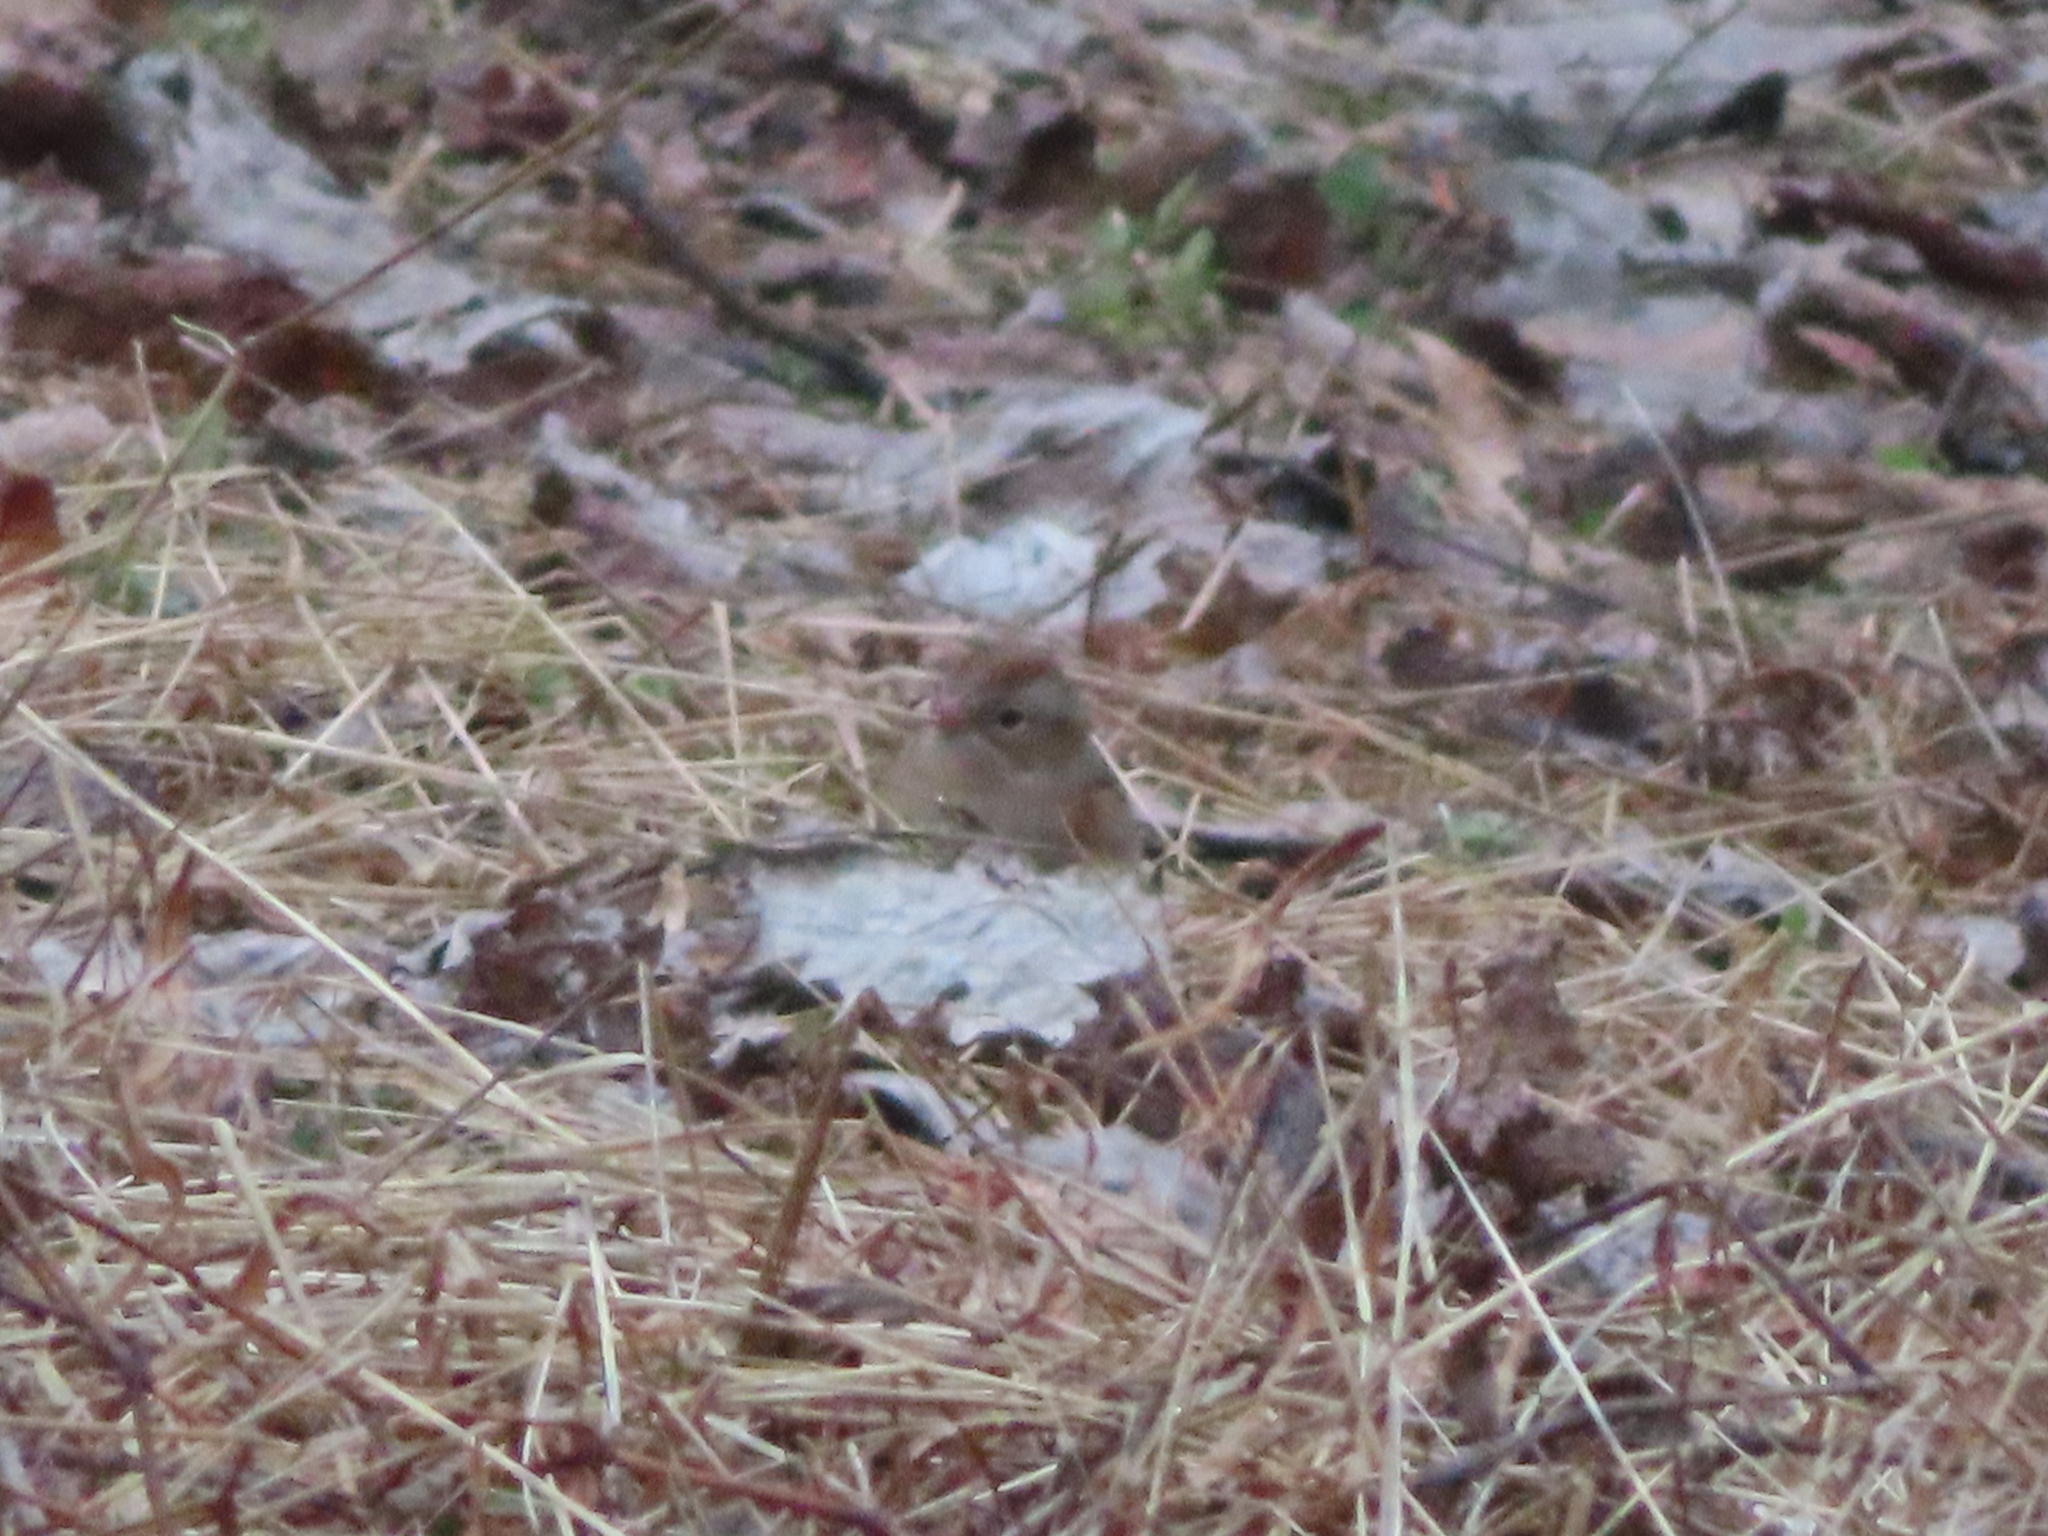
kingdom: Animalia
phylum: Chordata
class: Aves
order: Passeriformes
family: Passerellidae
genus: Spizella
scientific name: Spizella pusilla
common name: Field sparrow
